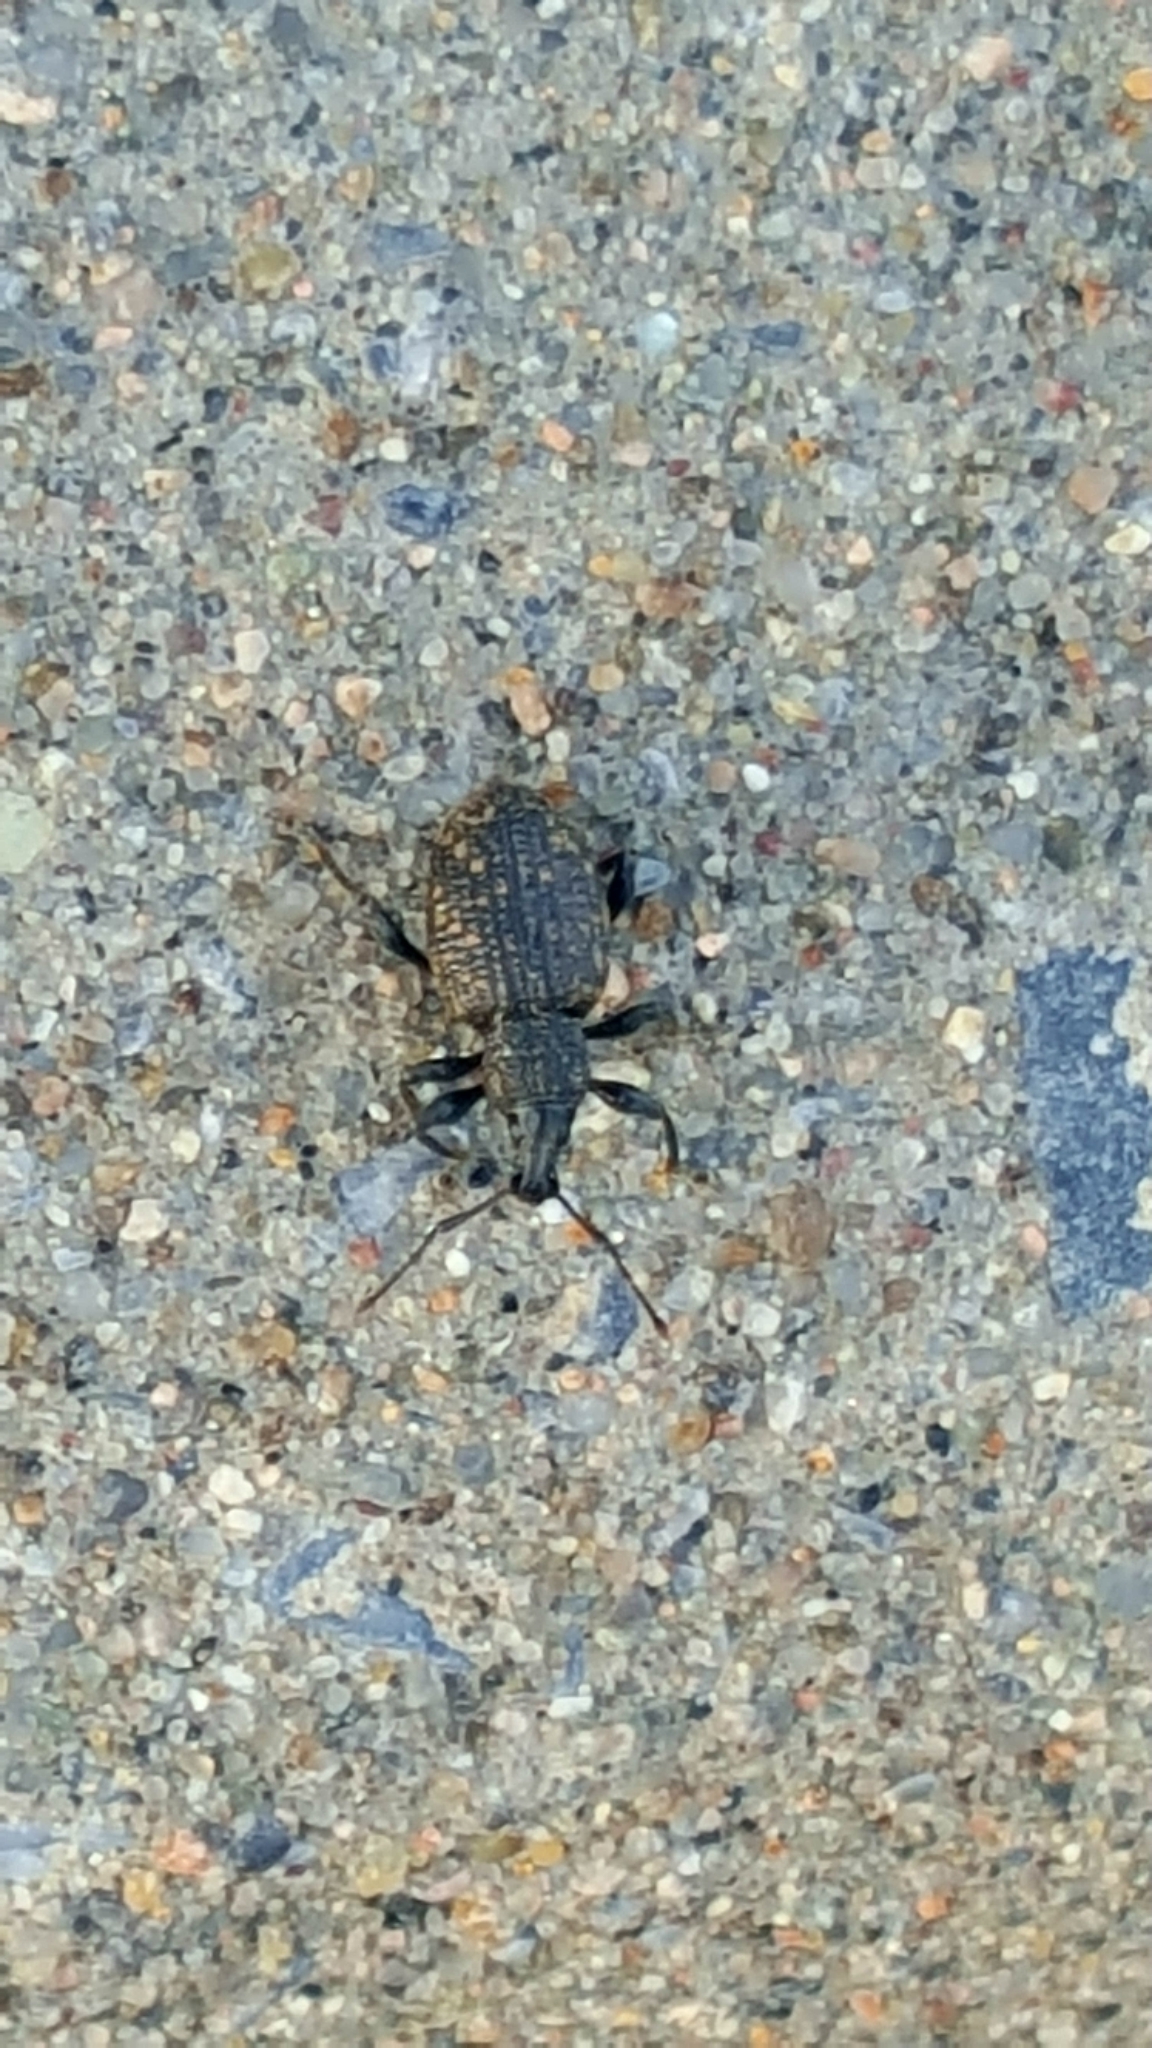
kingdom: Animalia
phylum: Arthropoda
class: Insecta
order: Coleoptera
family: Curculionidae
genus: Otiorhynchus
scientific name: Otiorhynchus sulcatus
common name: Black vine weevil
